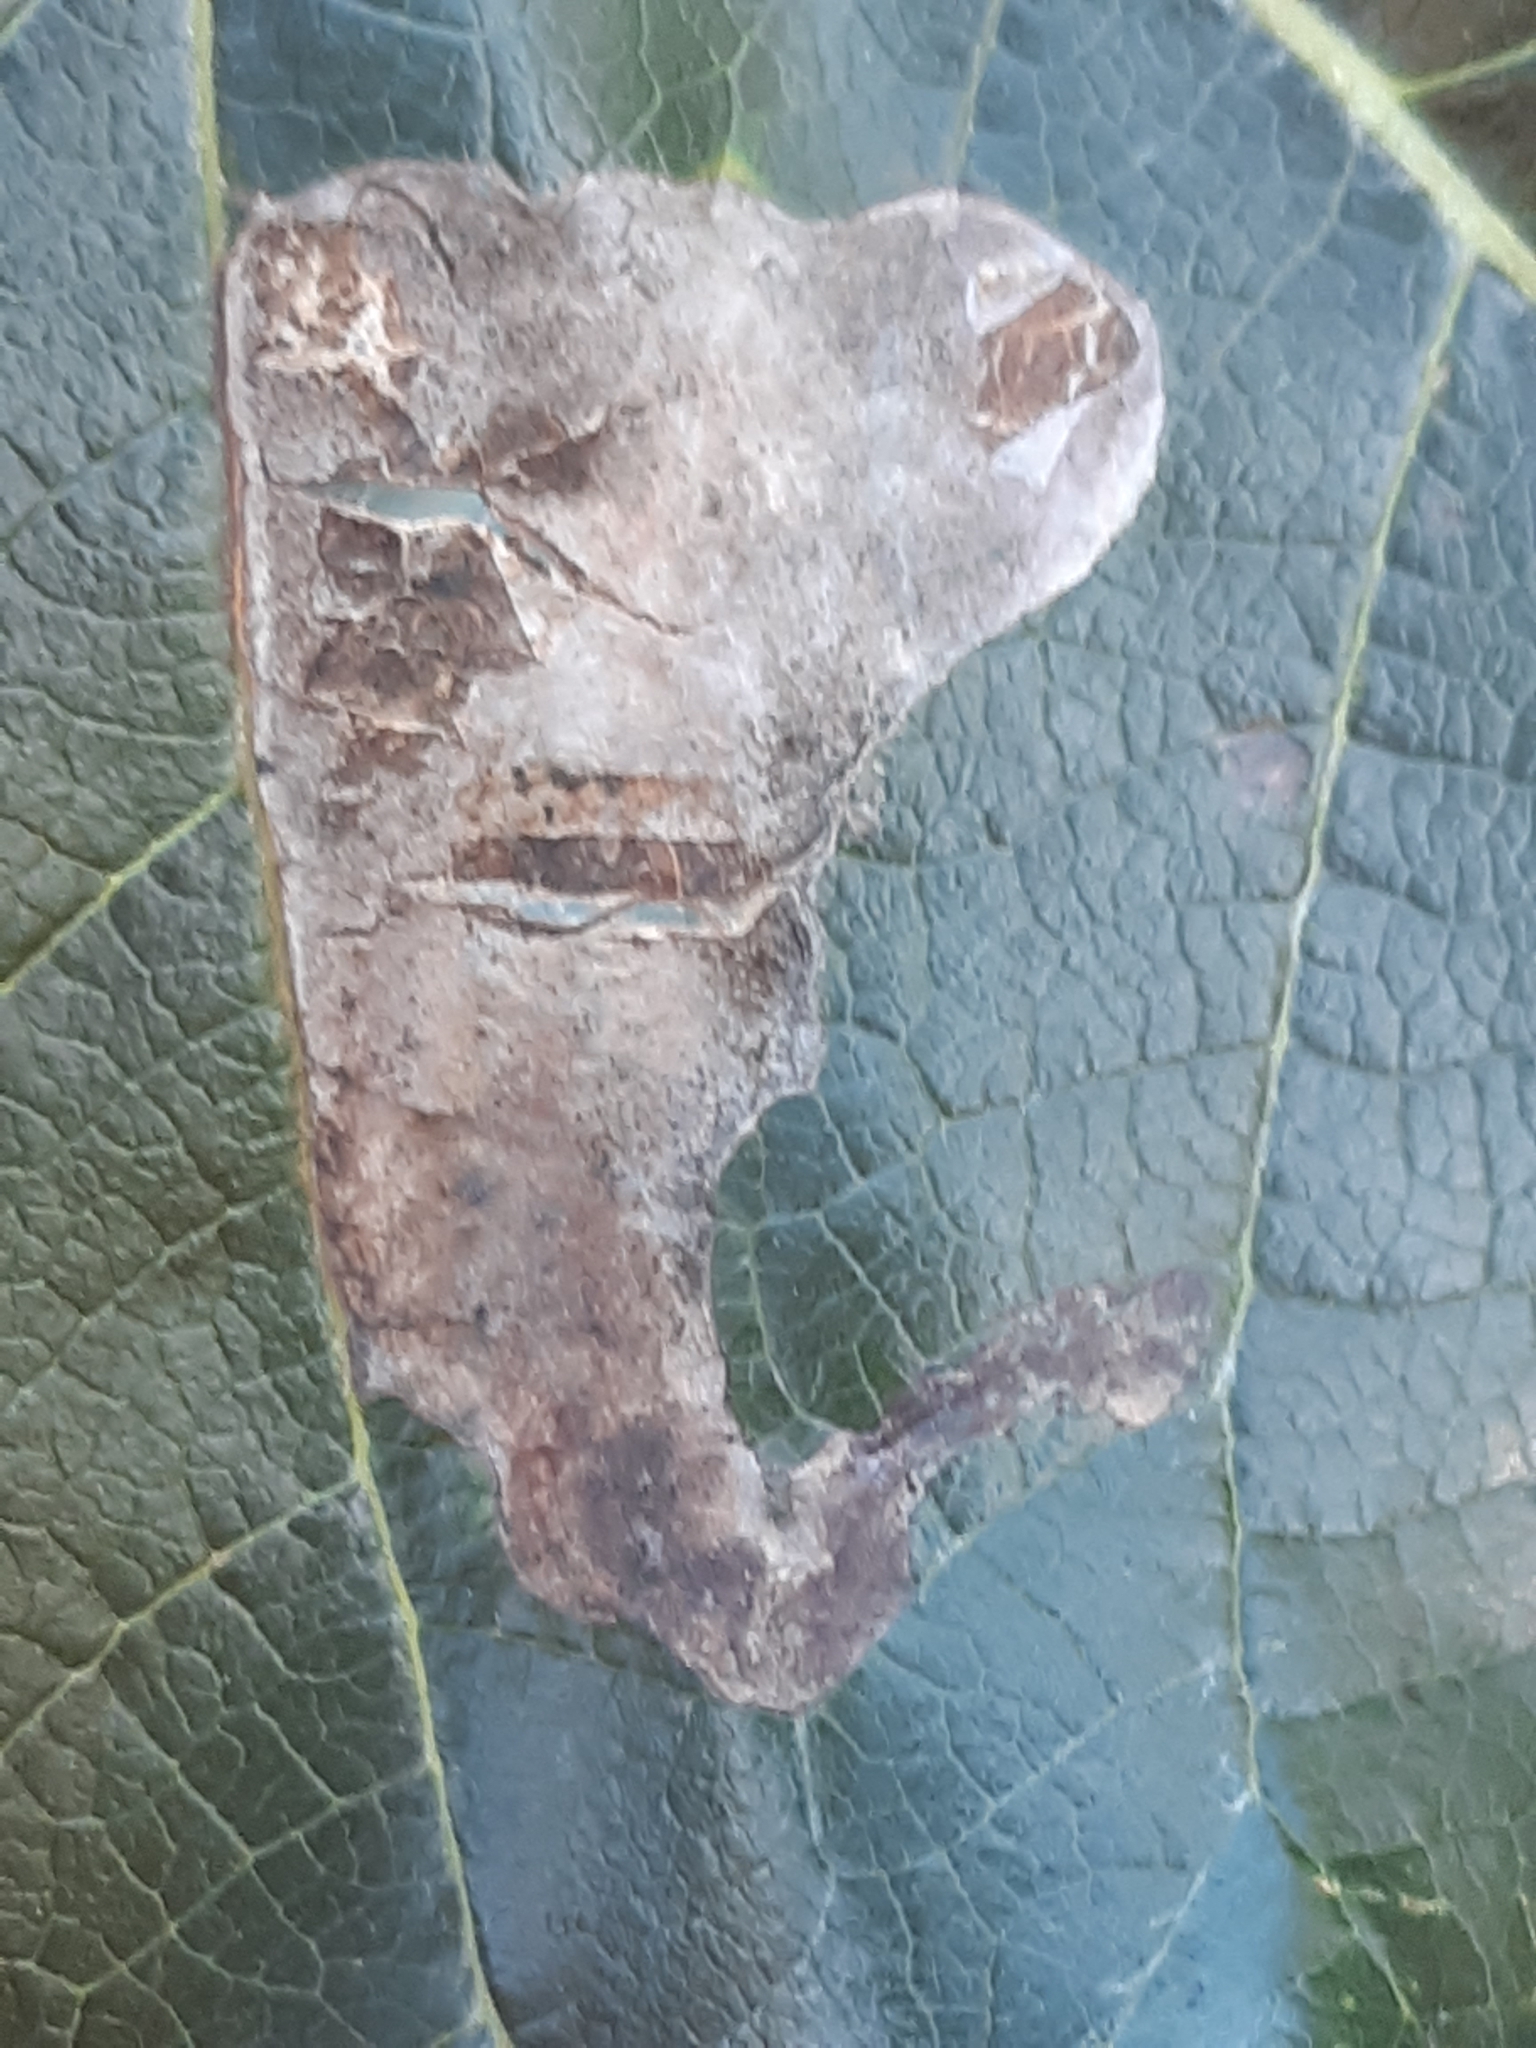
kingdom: Animalia
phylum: Arthropoda
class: Insecta
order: Diptera
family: Agromyzidae
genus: Agromyza
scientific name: Agromyza albitarsis
